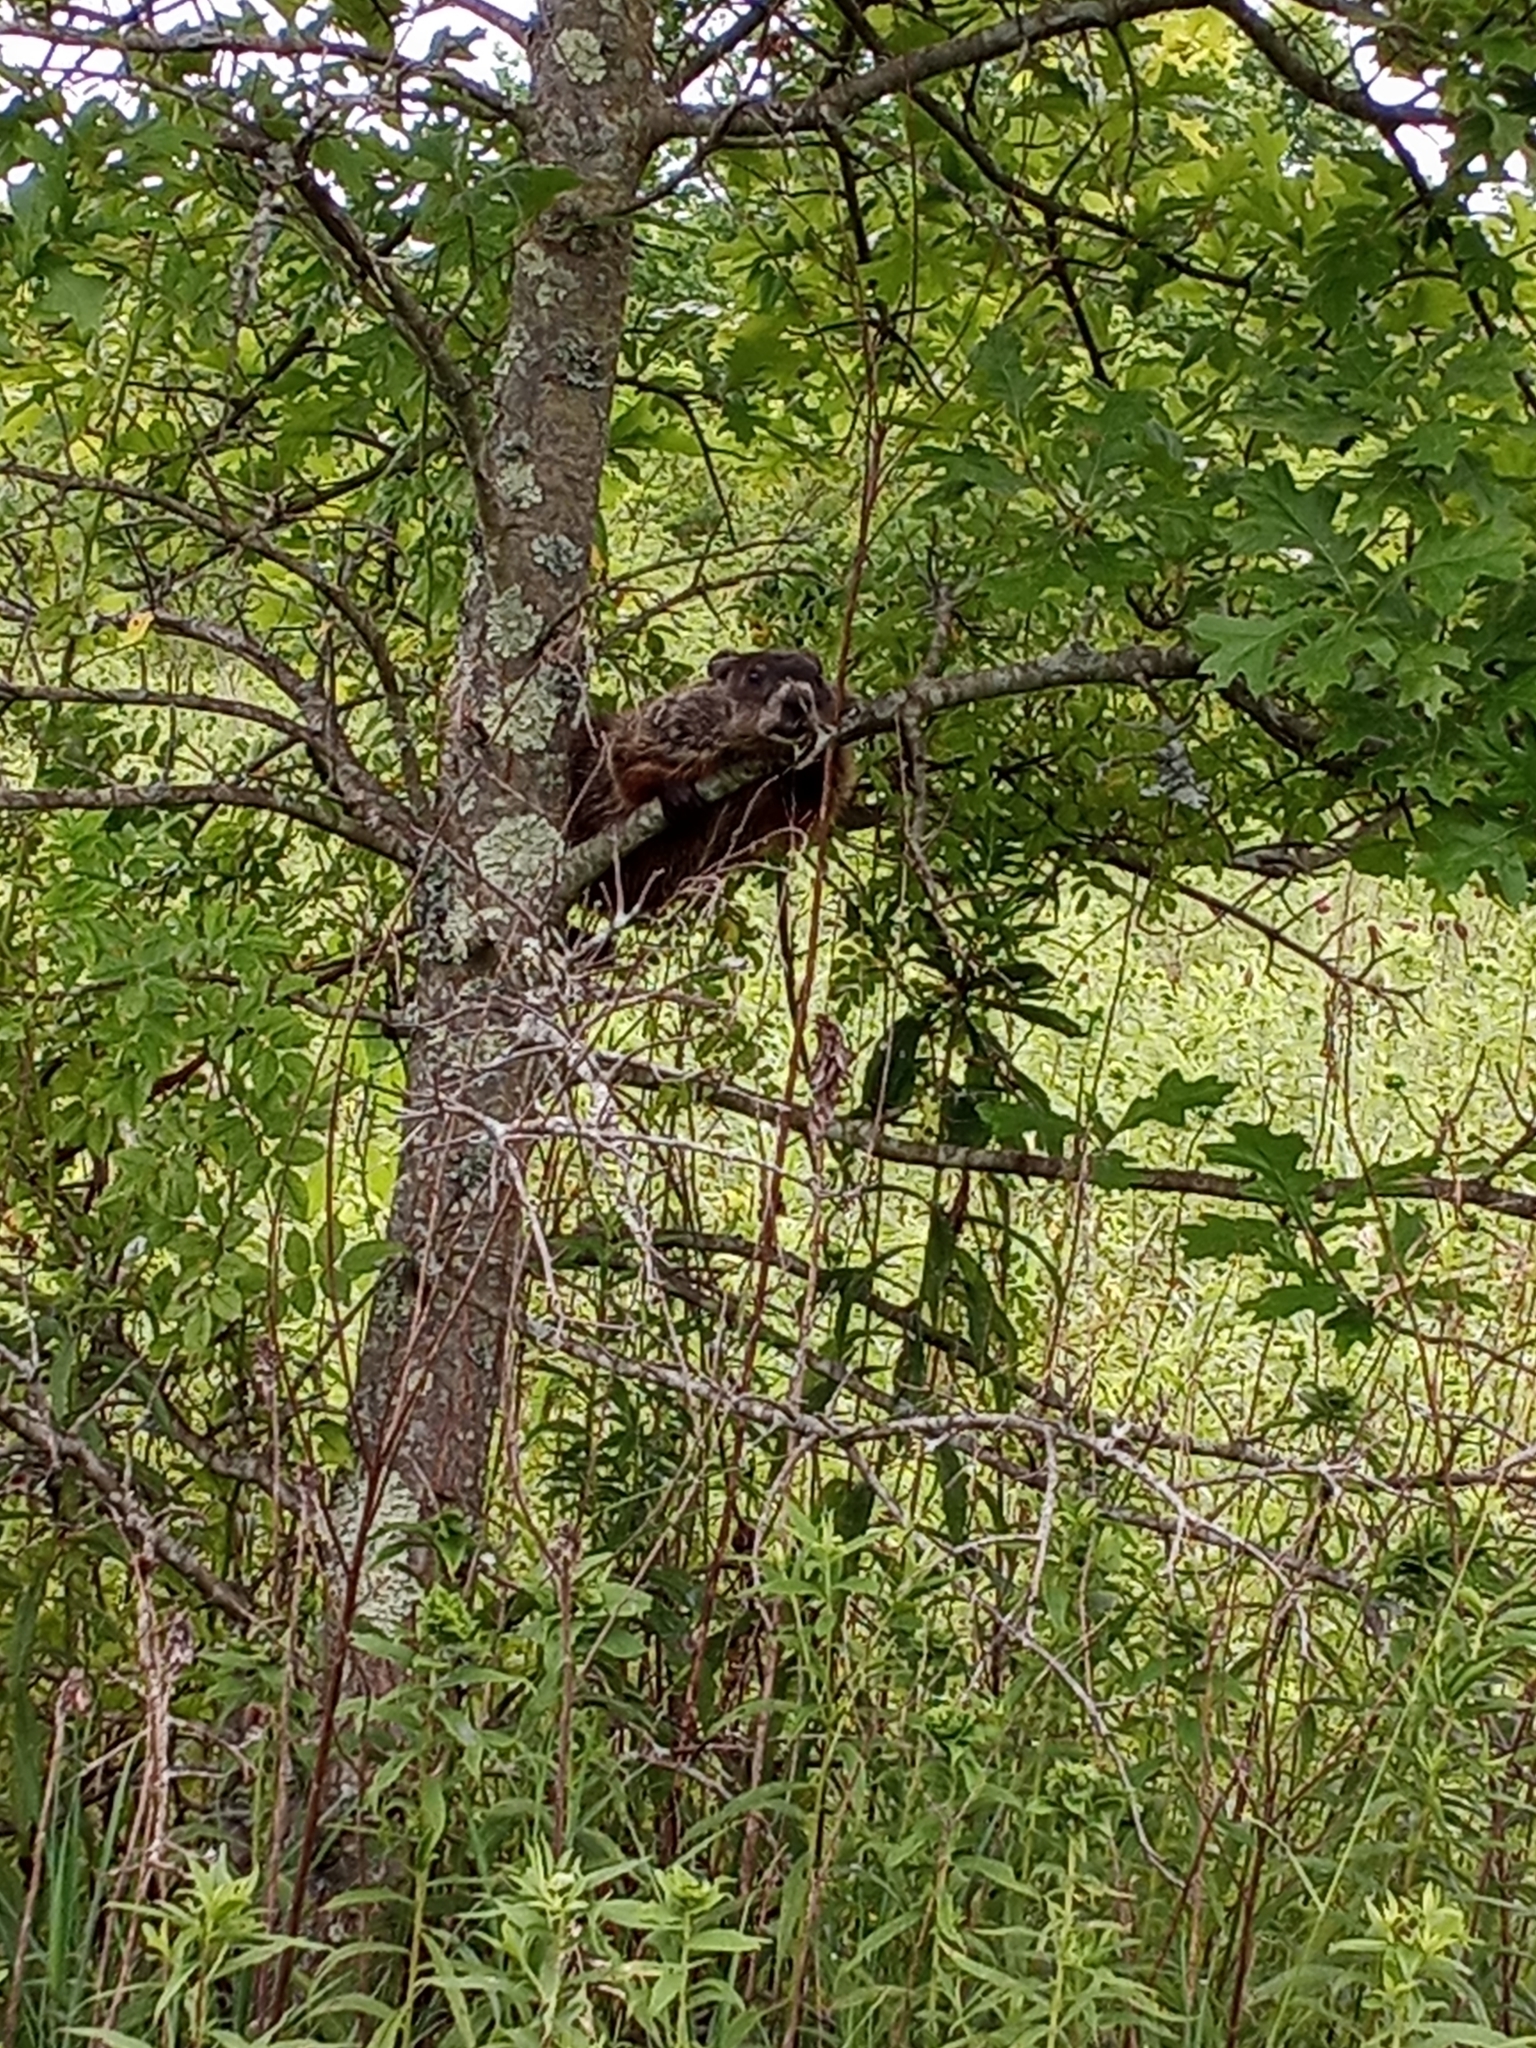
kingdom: Animalia
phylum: Chordata
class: Mammalia
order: Rodentia
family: Sciuridae
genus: Marmota
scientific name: Marmota monax
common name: Groundhog
